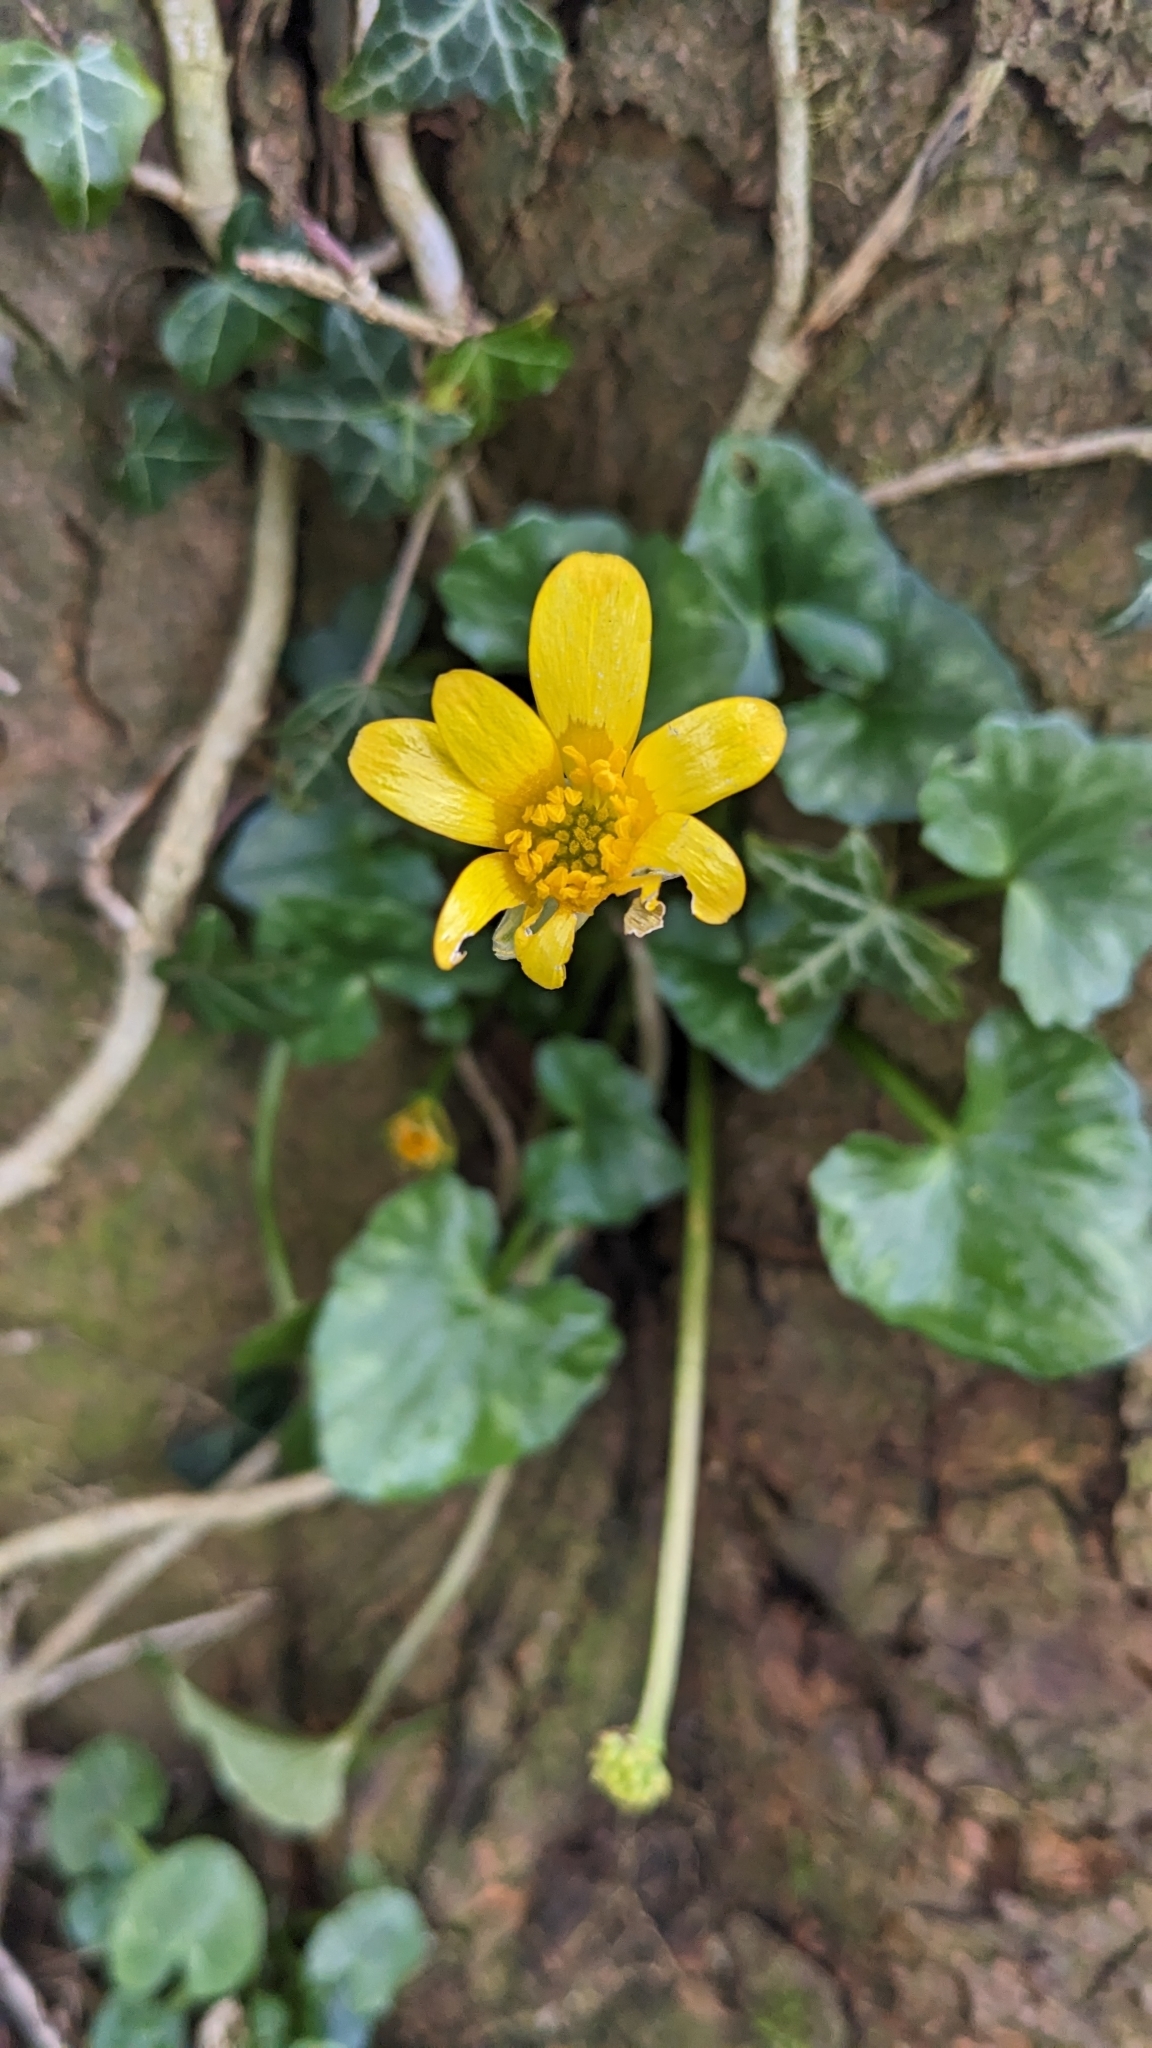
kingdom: Plantae
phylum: Tracheophyta
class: Magnoliopsida
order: Ranunculales
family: Ranunculaceae
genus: Ficaria
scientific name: Ficaria verna
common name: Lesser celandine
